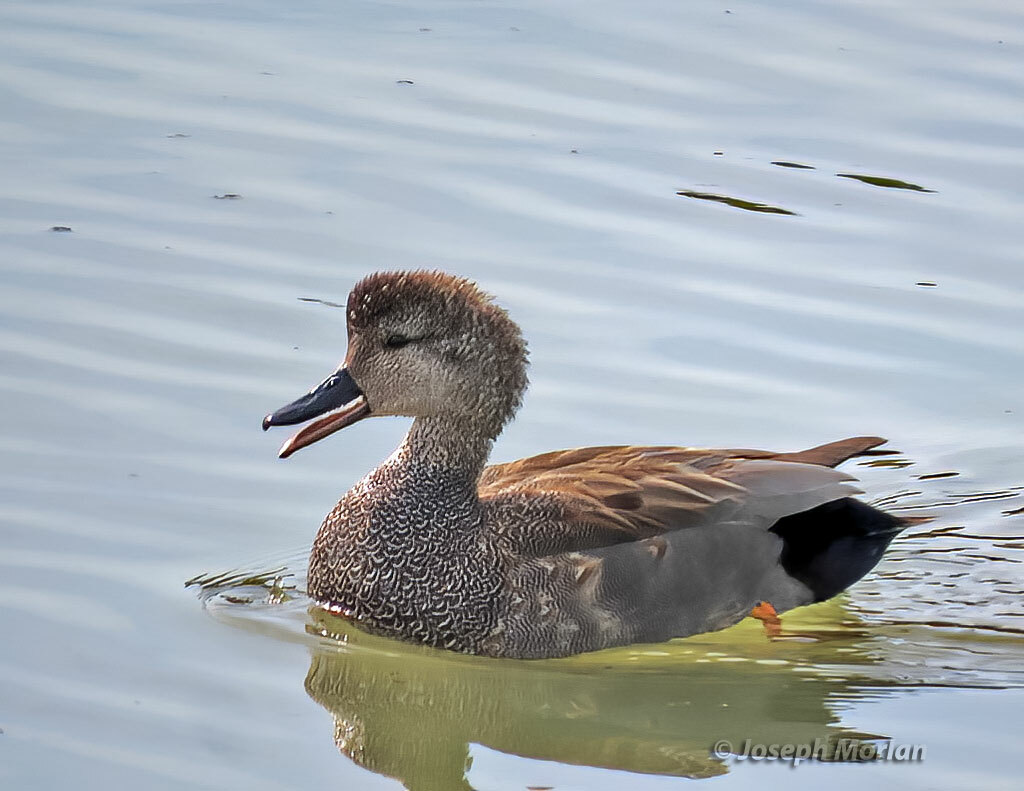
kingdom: Animalia
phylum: Chordata
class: Aves
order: Anseriformes
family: Anatidae
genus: Mareca
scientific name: Mareca strepera
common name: Gadwall
